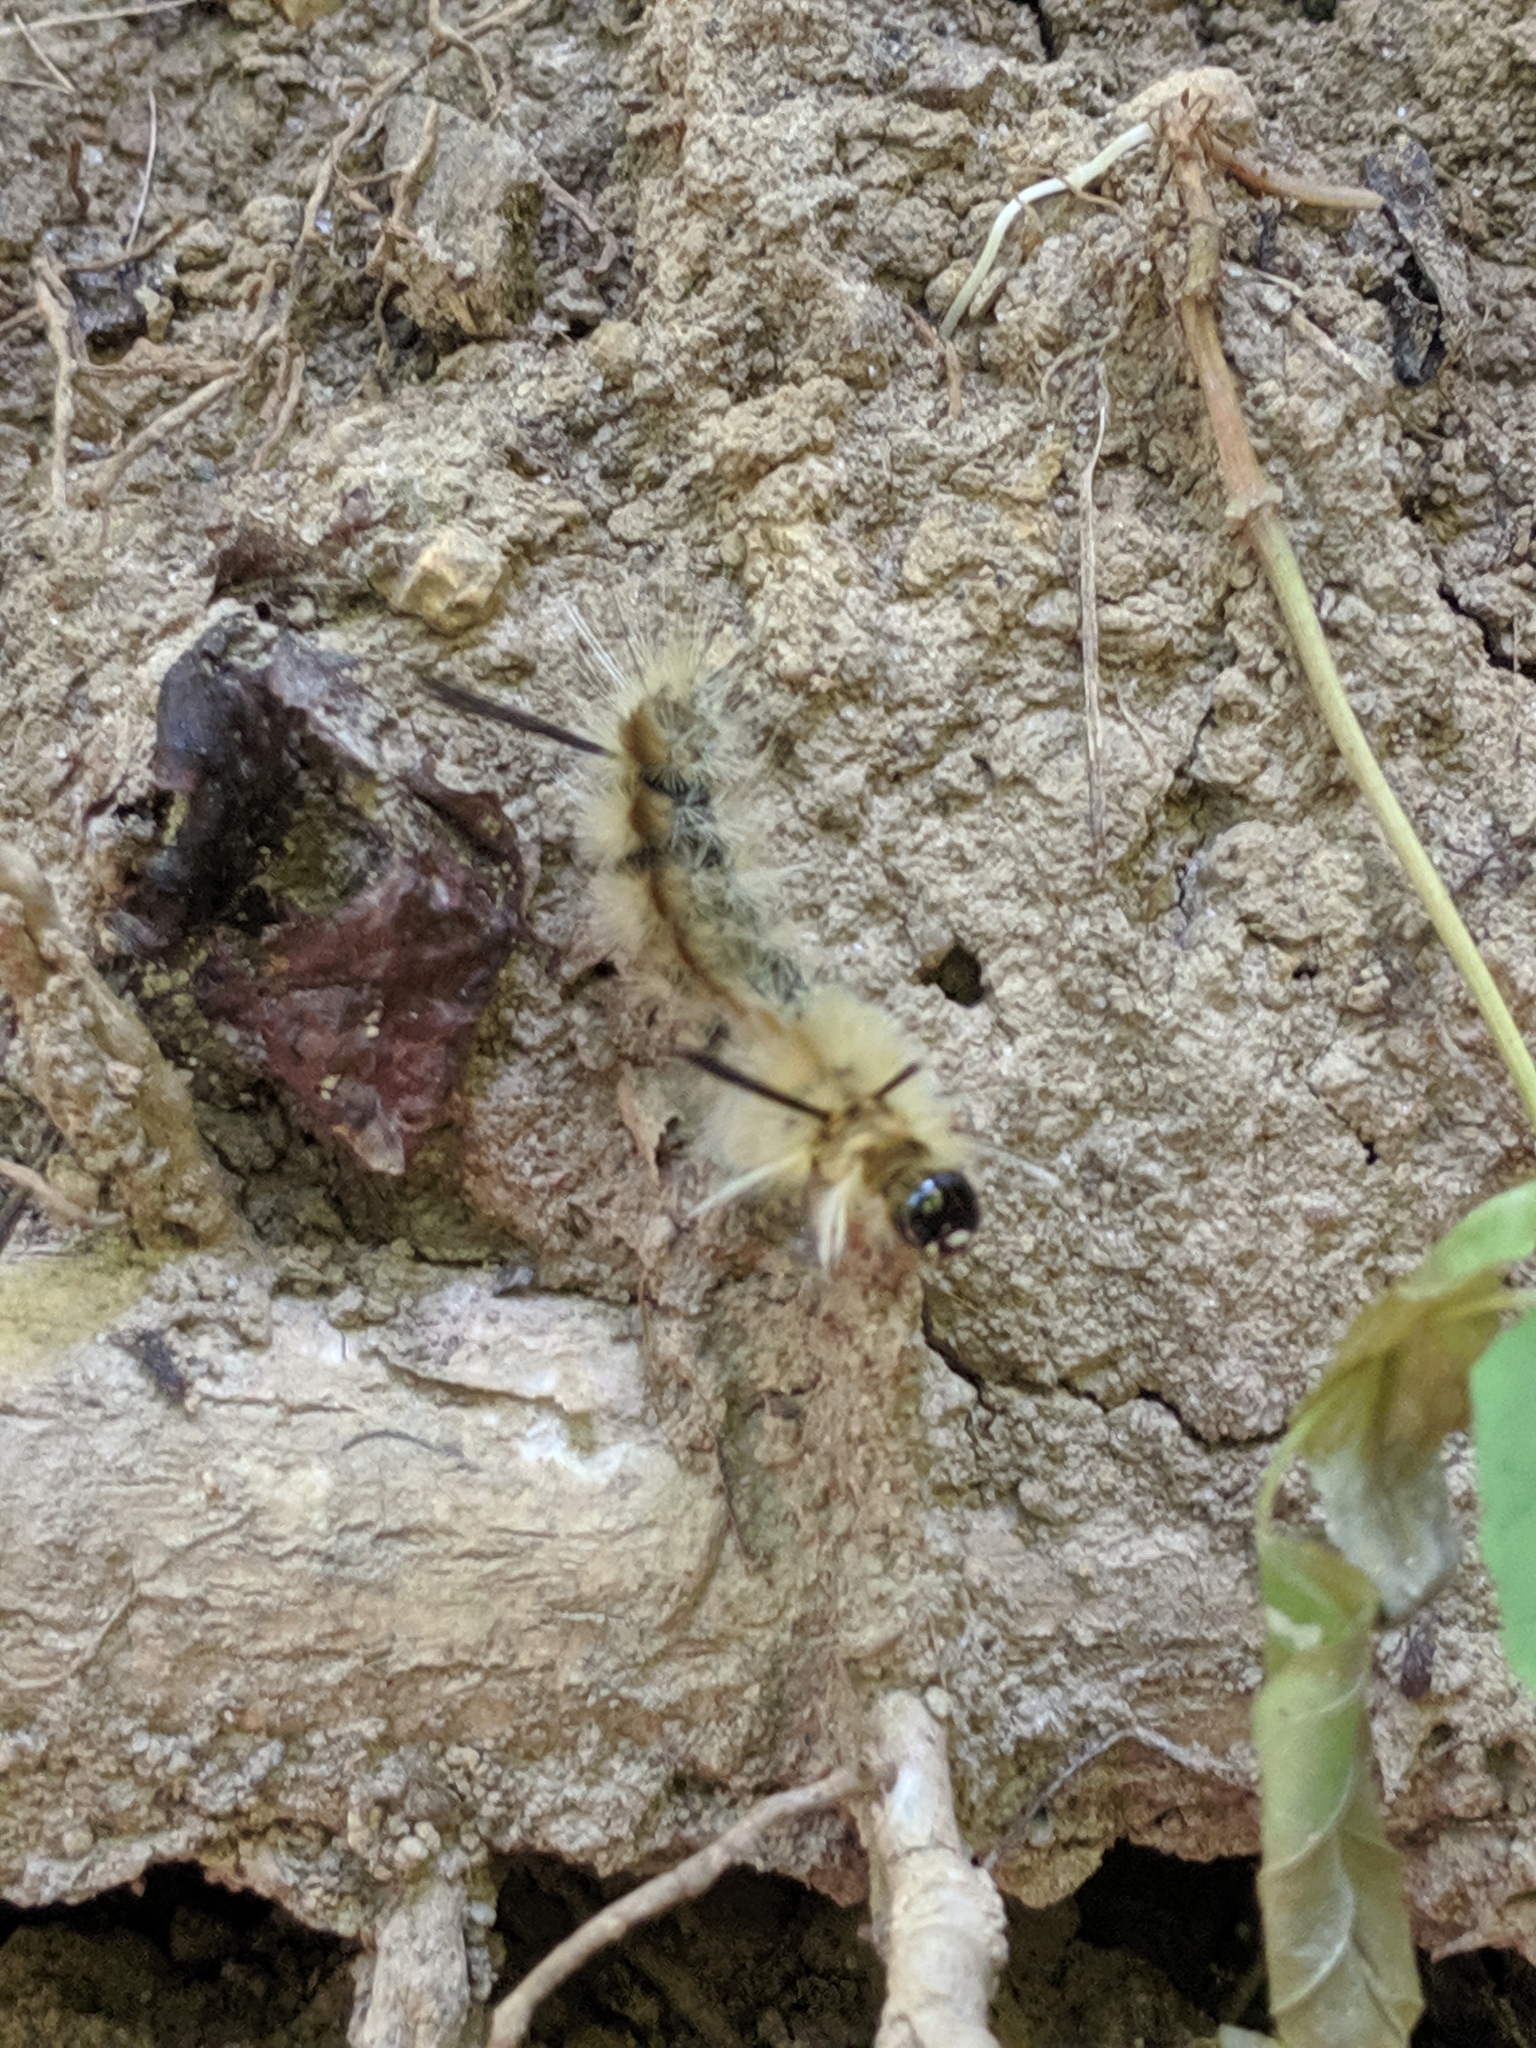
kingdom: Animalia
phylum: Arthropoda
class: Insecta
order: Lepidoptera
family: Erebidae
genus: Halysidota
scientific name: Halysidota tessellaris
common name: Banded tussock moth
